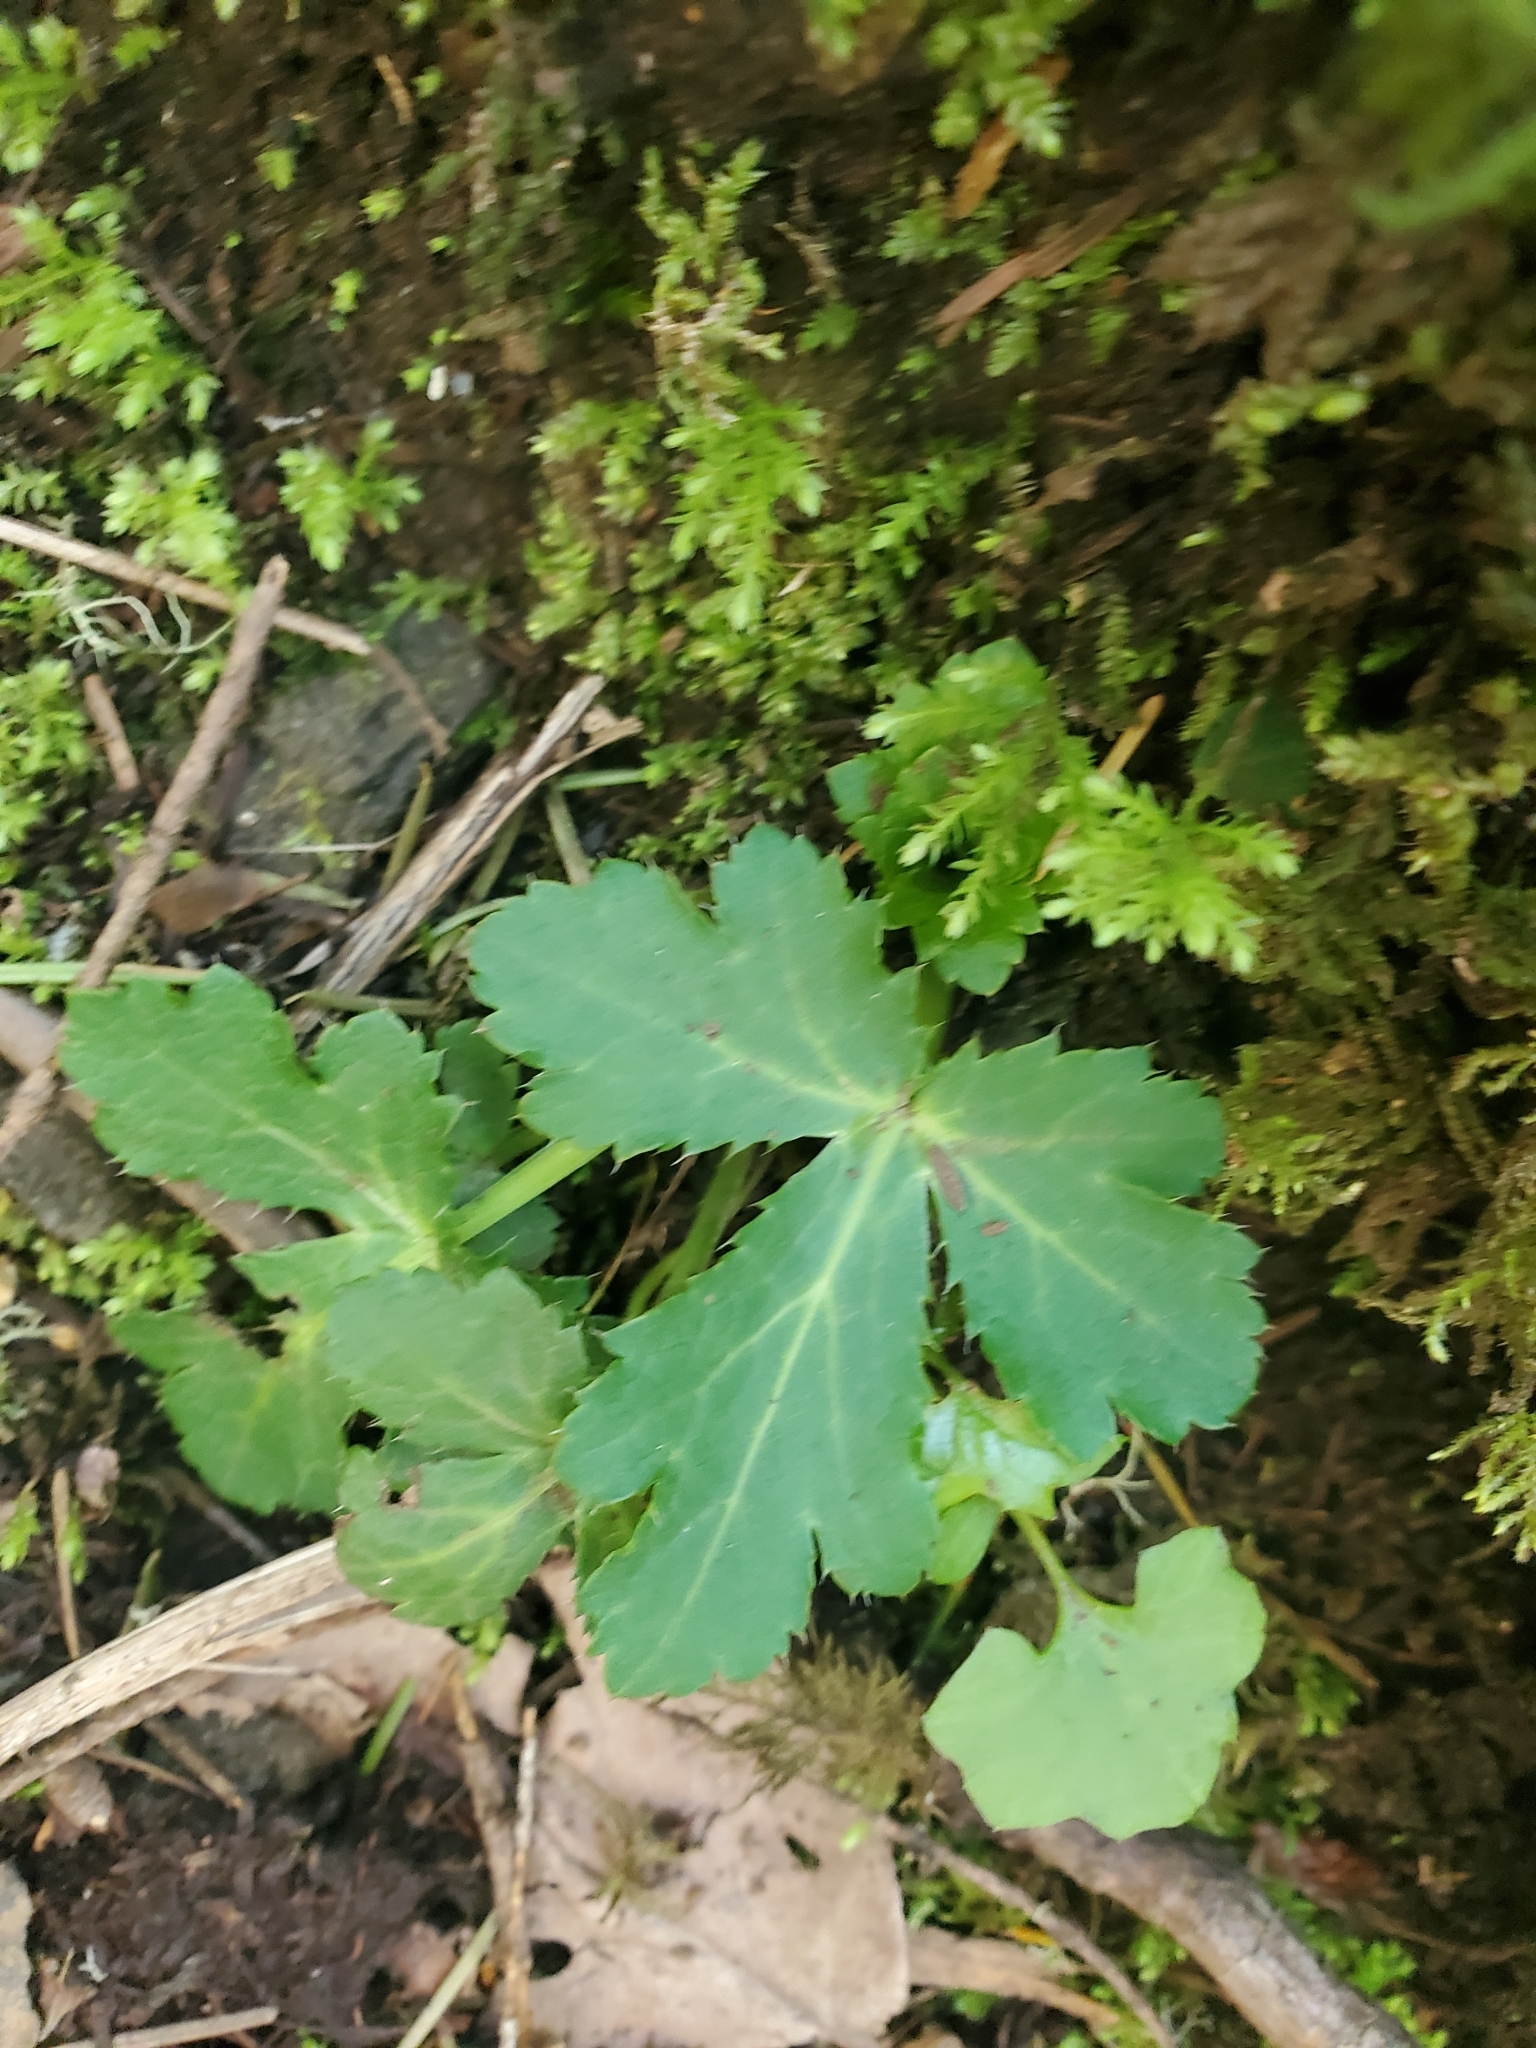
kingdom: Plantae
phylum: Tracheophyta
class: Magnoliopsida
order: Apiales
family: Apiaceae
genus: Sanicula
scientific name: Sanicula crassicaulis
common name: Western snakeroot
